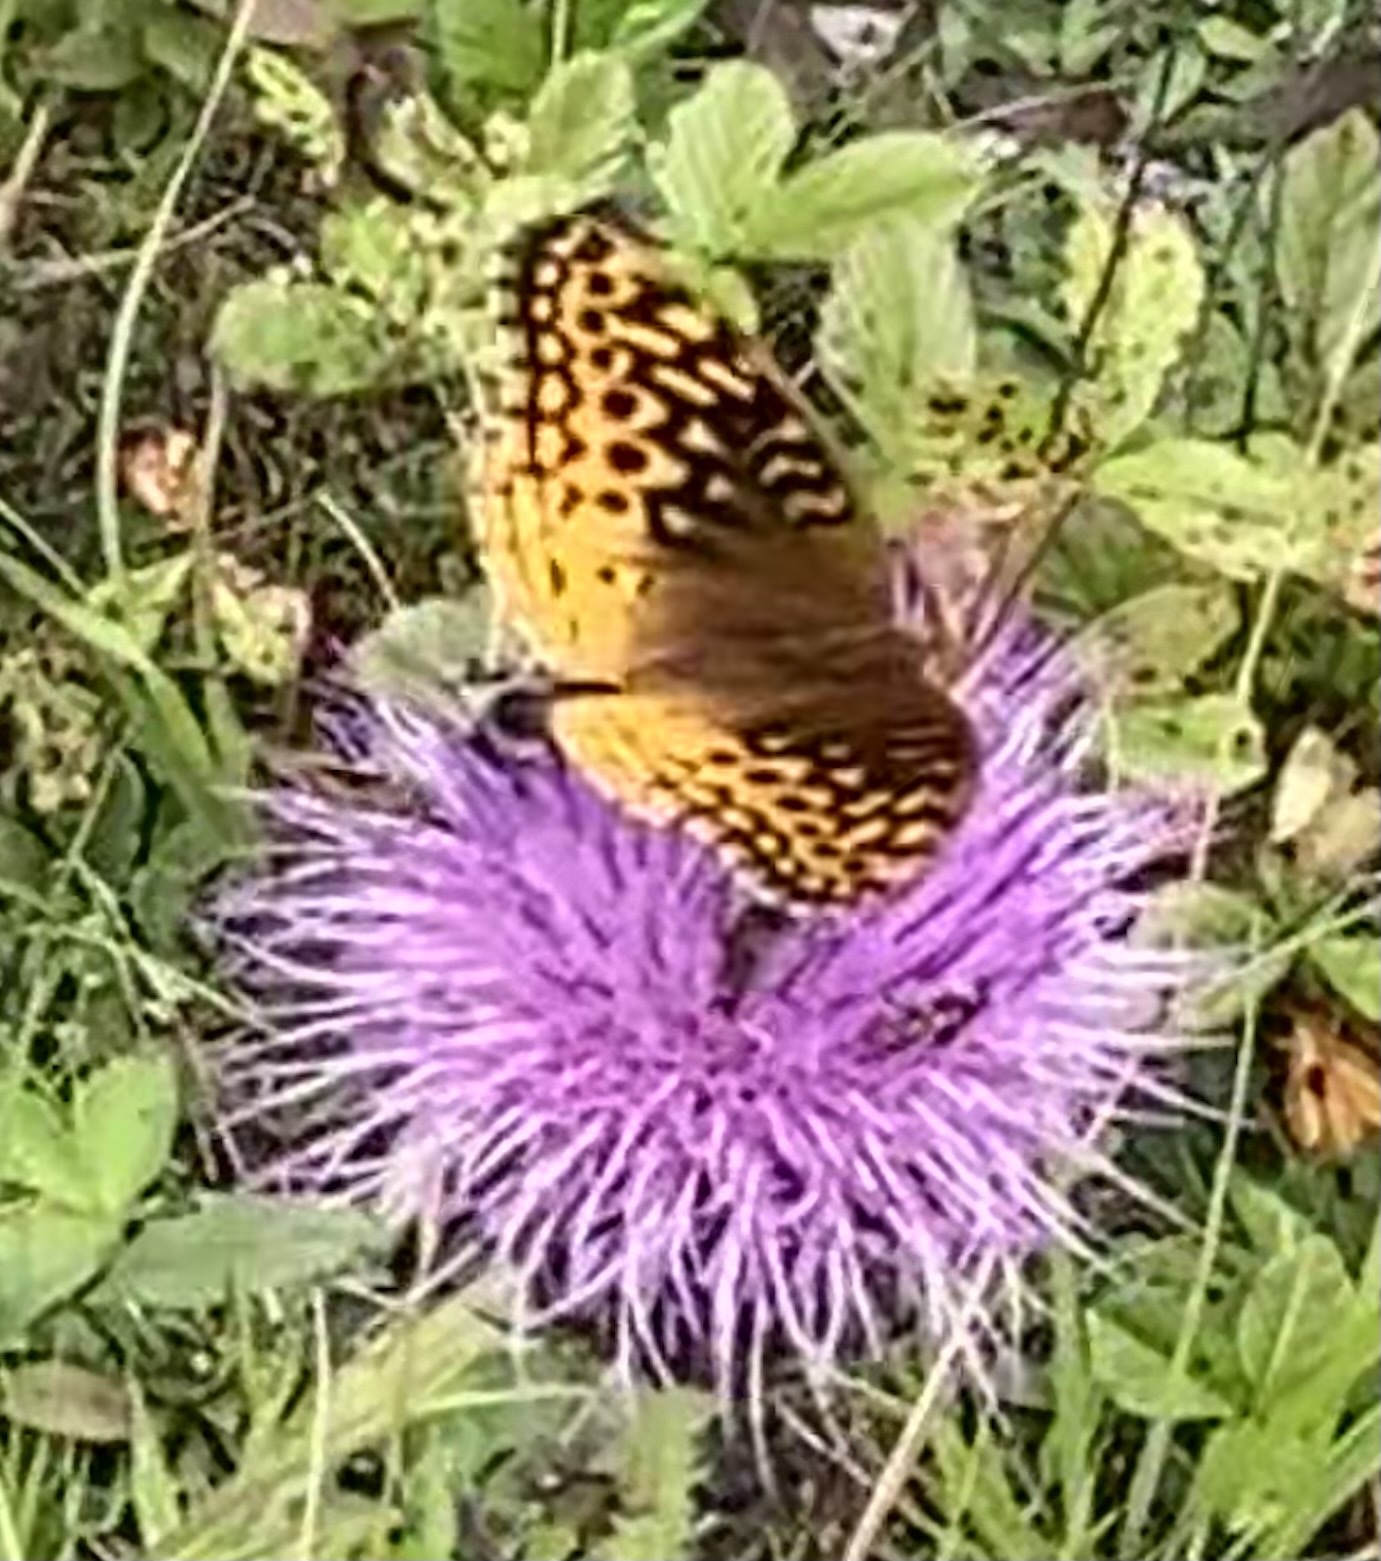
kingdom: Animalia
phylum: Arthropoda
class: Insecta
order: Lepidoptera
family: Nymphalidae
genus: Speyeria
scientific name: Speyeria cybele
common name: Great spangled fritillary
